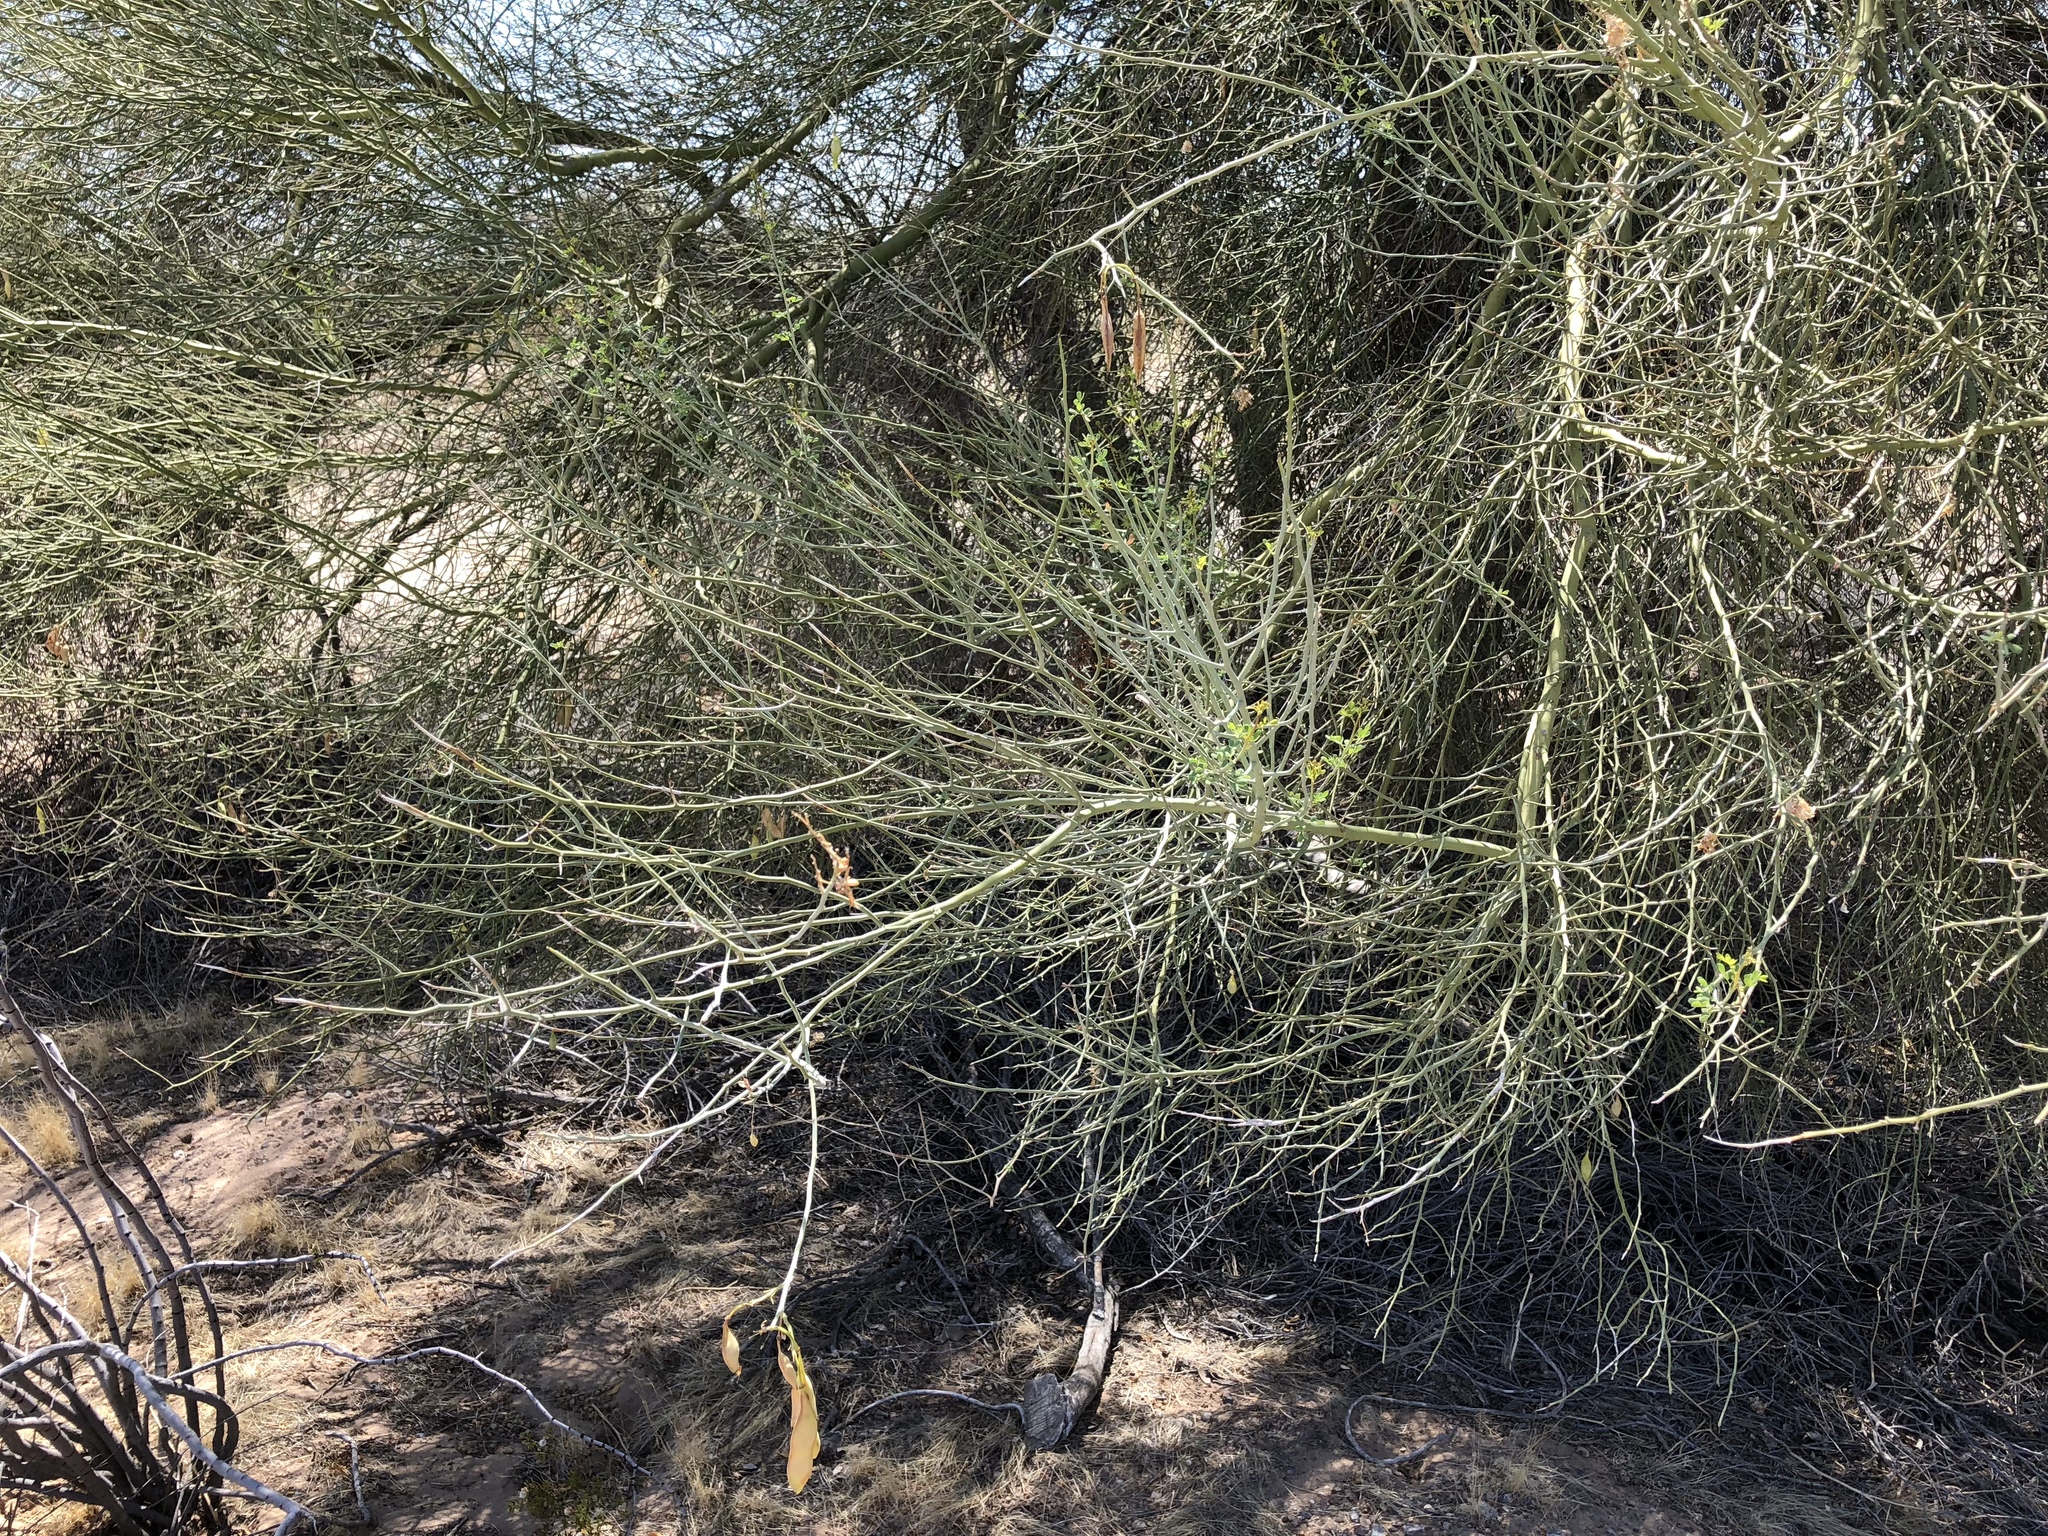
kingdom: Plantae
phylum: Tracheophyta
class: Magnoliopsida
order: Fabales
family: Fabaceae
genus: Parkinsonia
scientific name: Parkinsonia florida
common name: Blue paloverde
